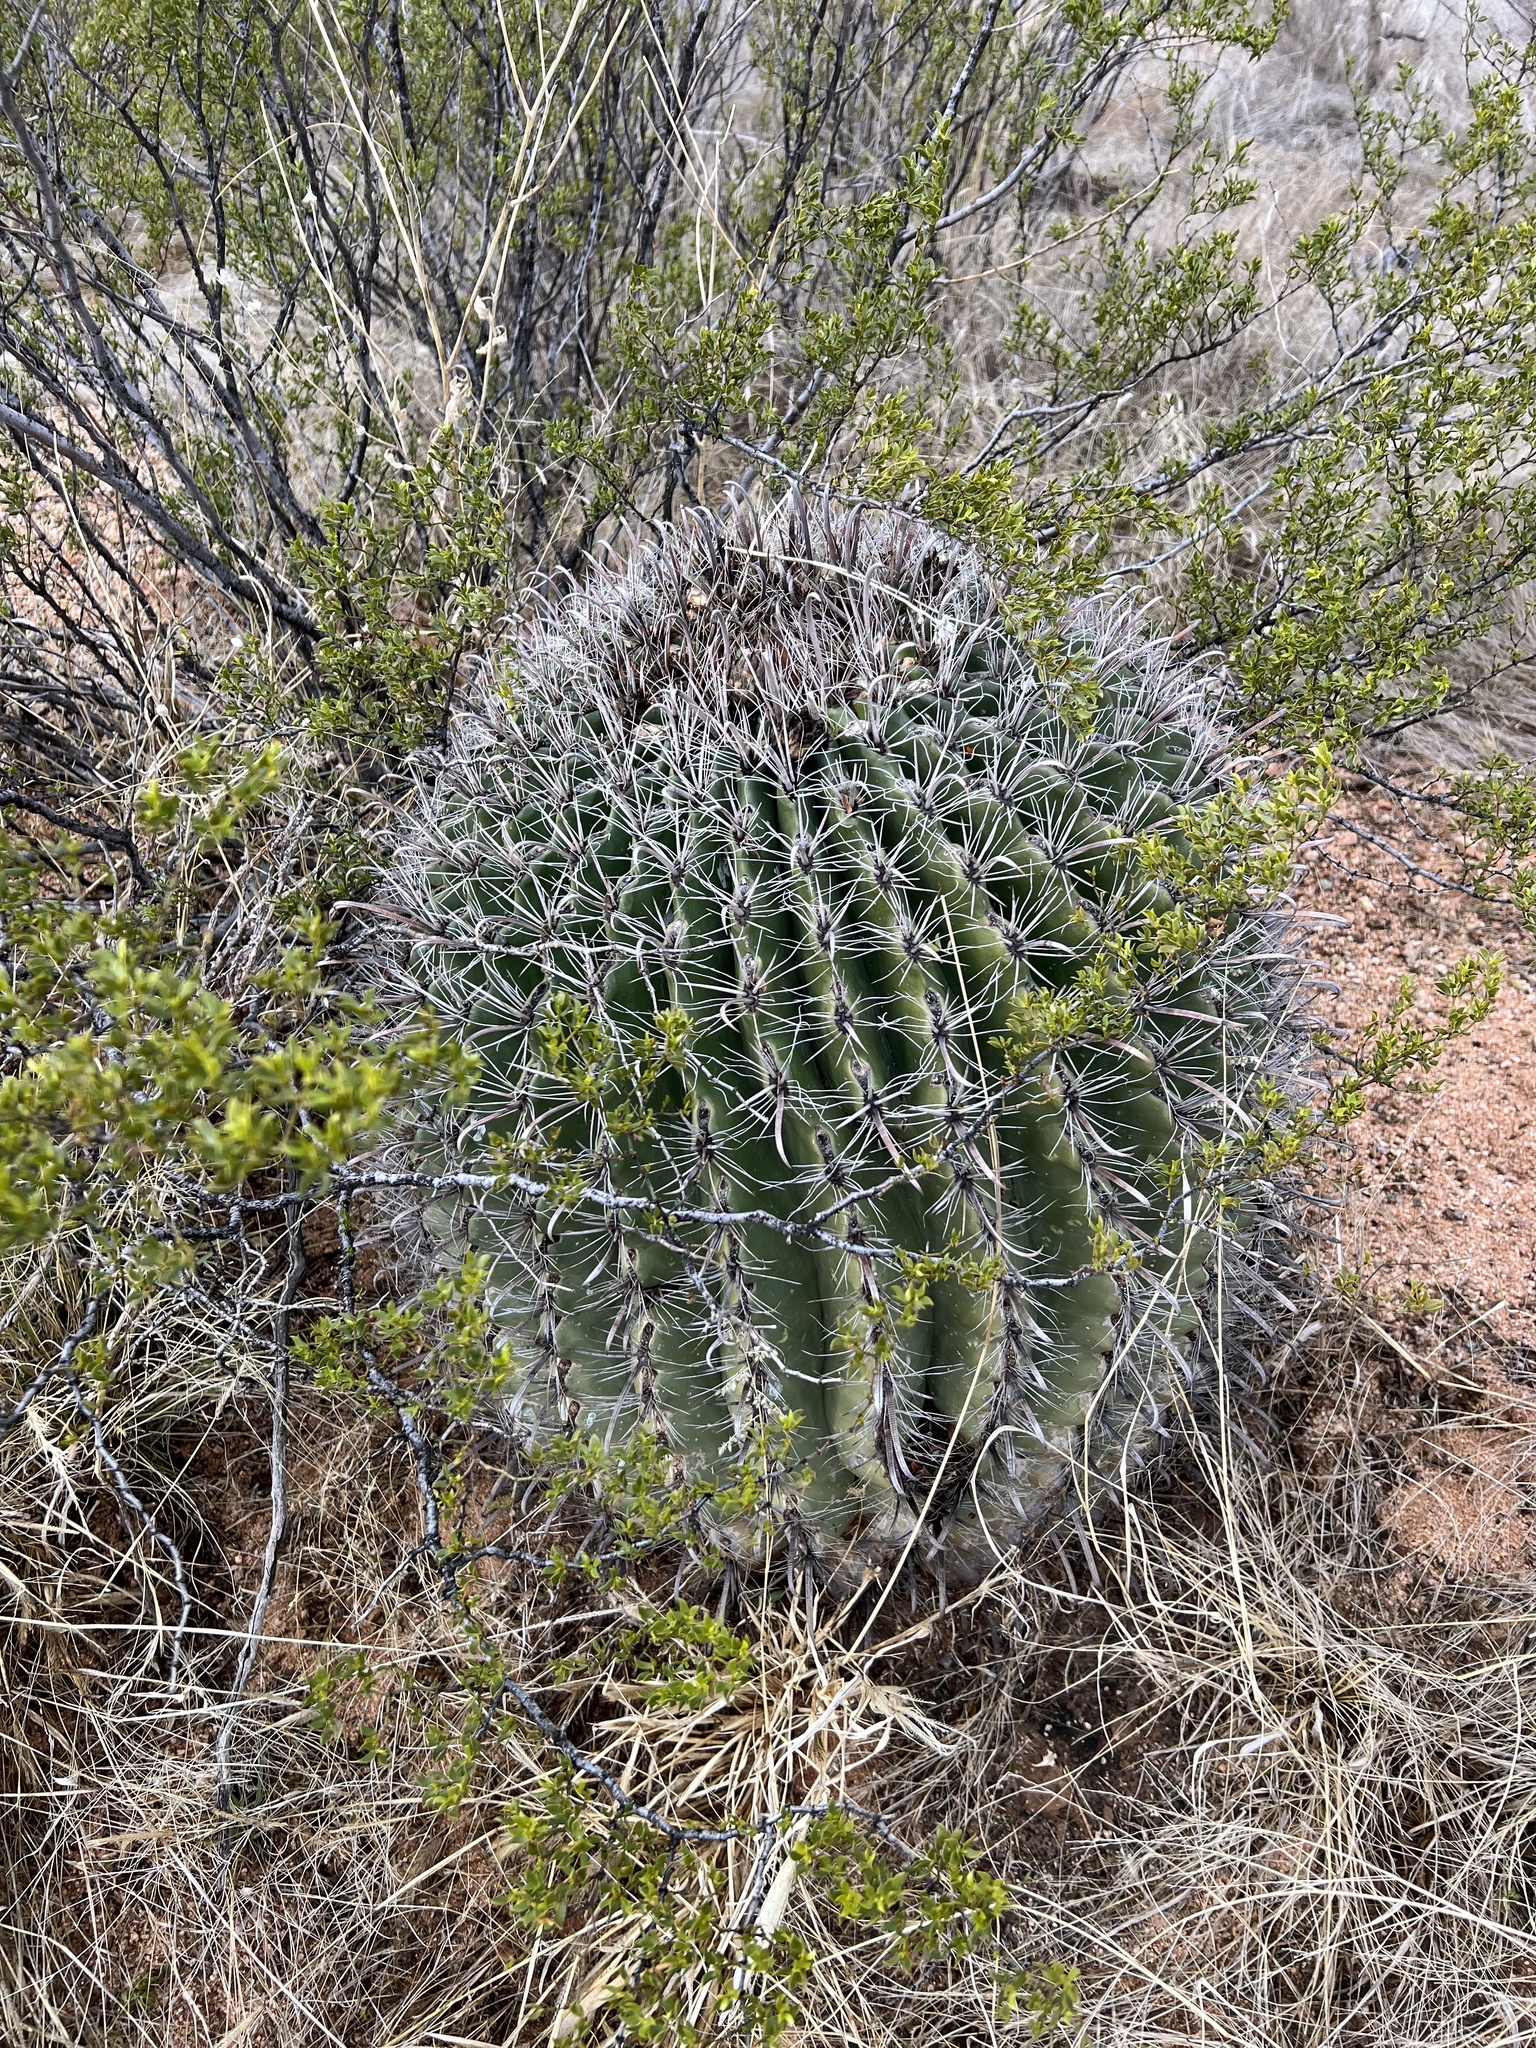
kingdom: Plantae
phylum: Tracheophyta
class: Magnoliopsida
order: Caryophyllales
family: Cactaceae
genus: Ferocactus
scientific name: Ferocactus wislizeni
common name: Candy barrel cactus
